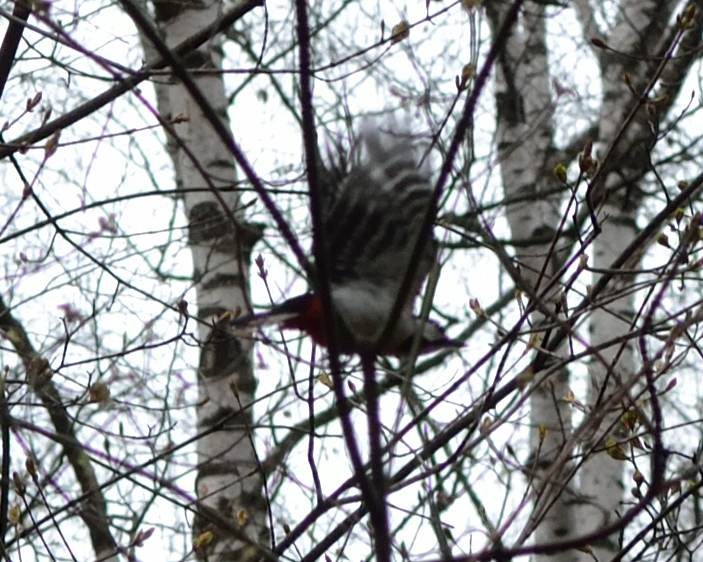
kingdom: Animalia
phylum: Chordata
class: Aves
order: Piciformes
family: Picidae
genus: Dendrocopos
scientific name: Dendrocopos major
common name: Great spotted woodpecker
